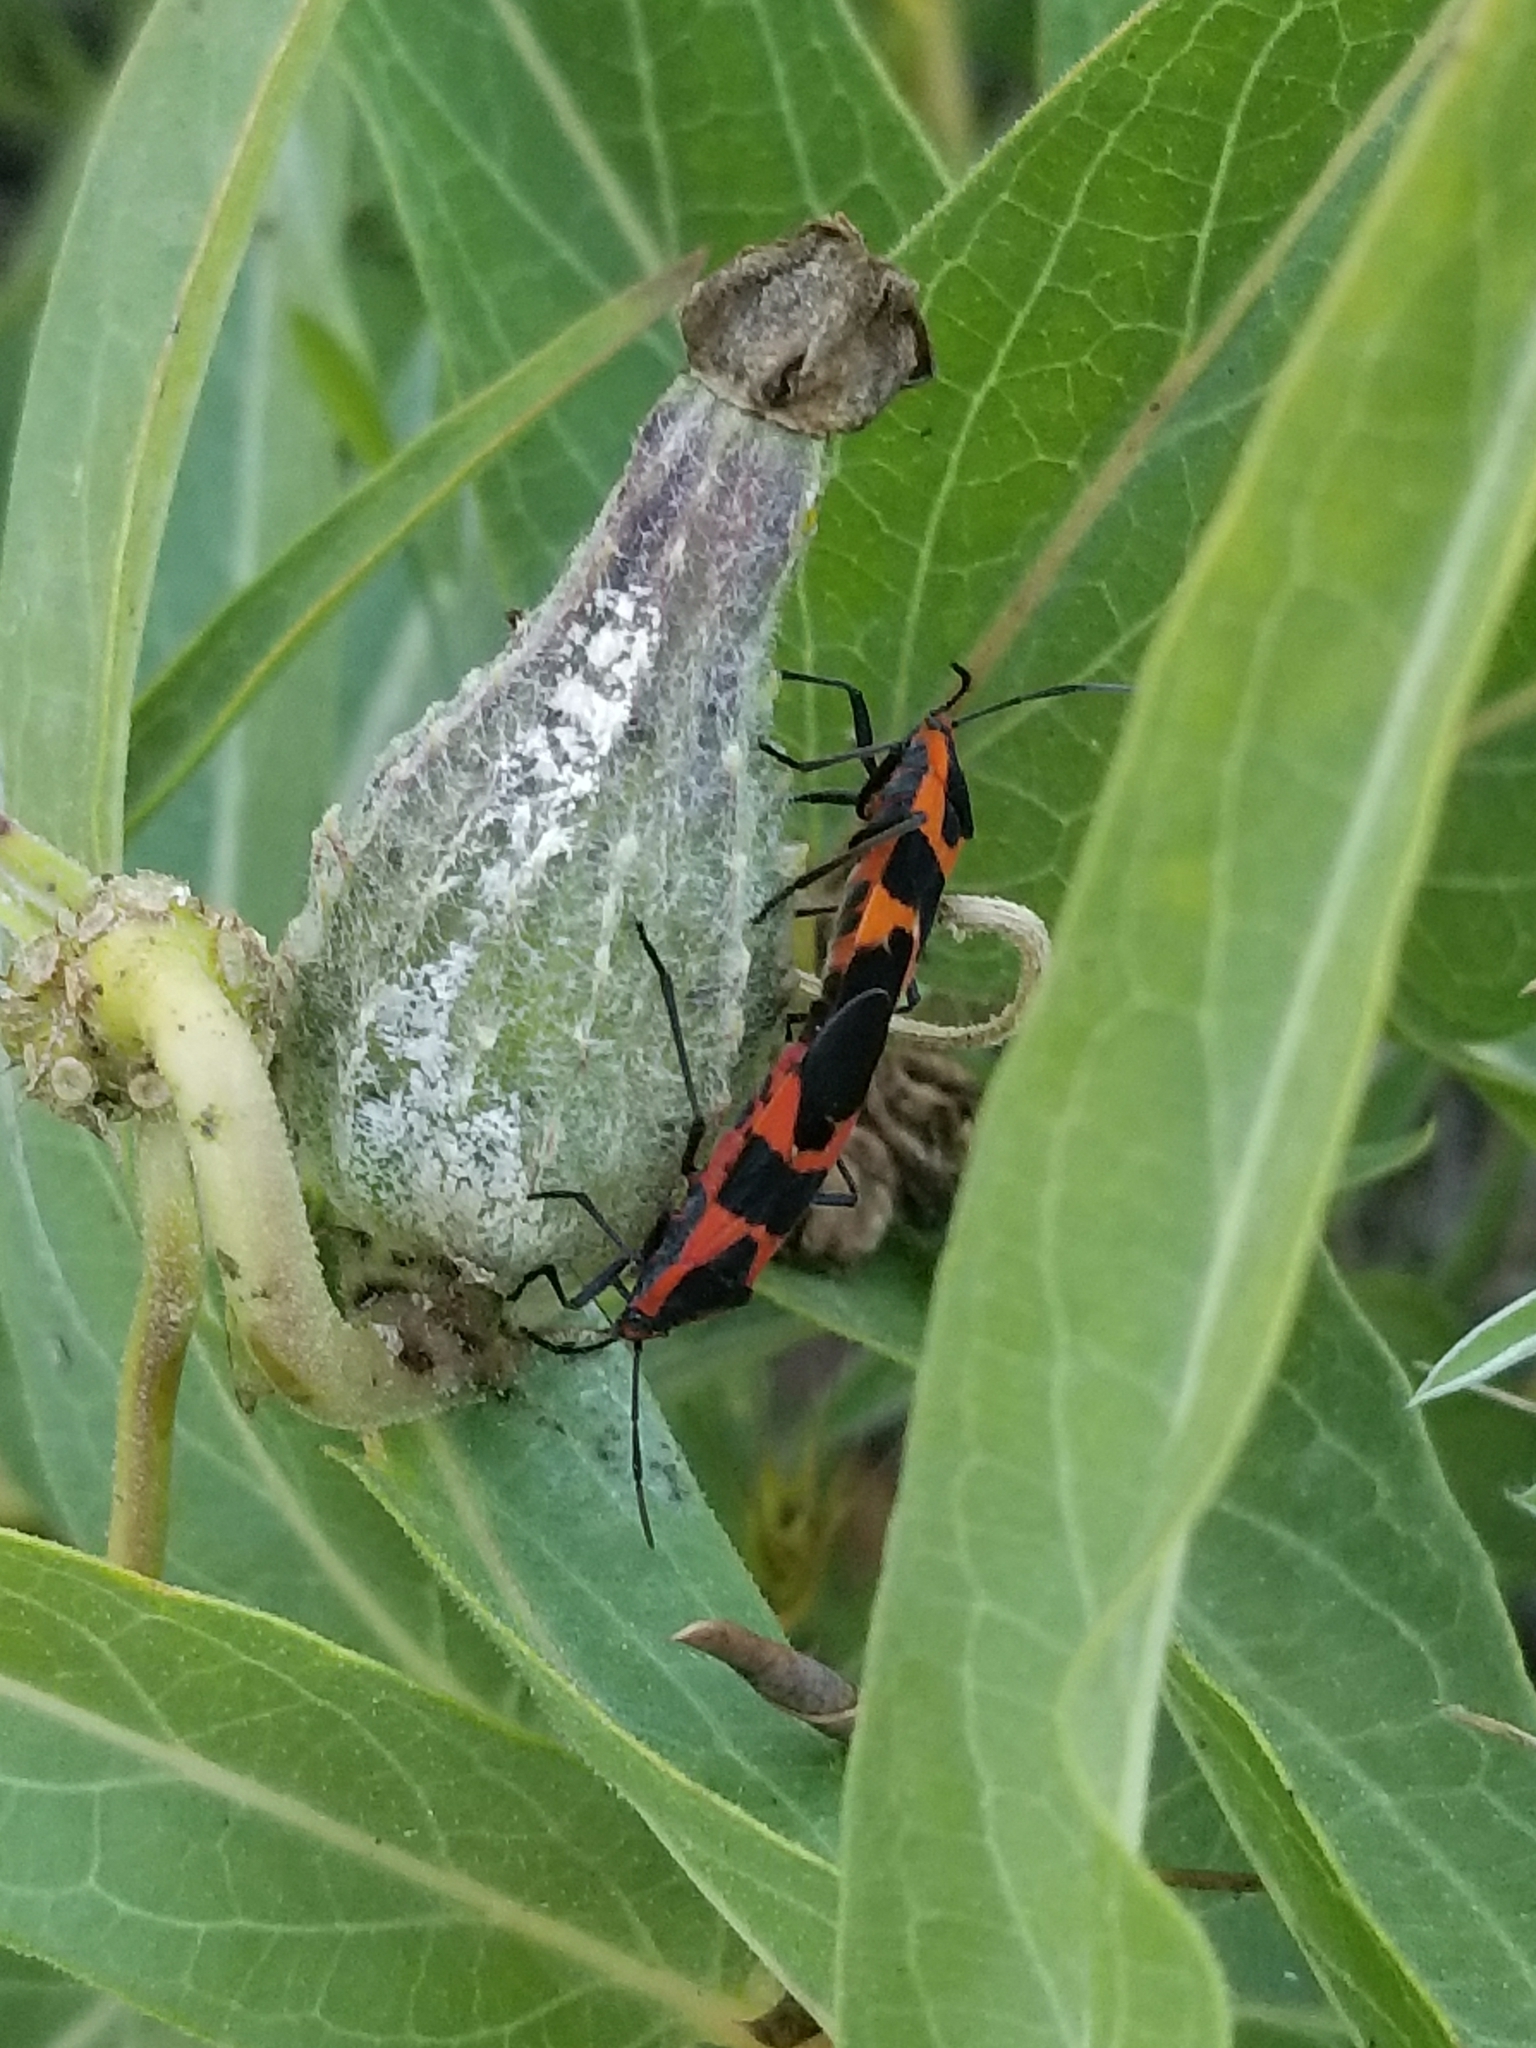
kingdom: Animalia
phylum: Arthropoda
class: Insecta
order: Hemiptera
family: Lygaeidae
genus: Oncopeltus
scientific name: Oncopeltus fasciatus
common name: Large milkweed bug
